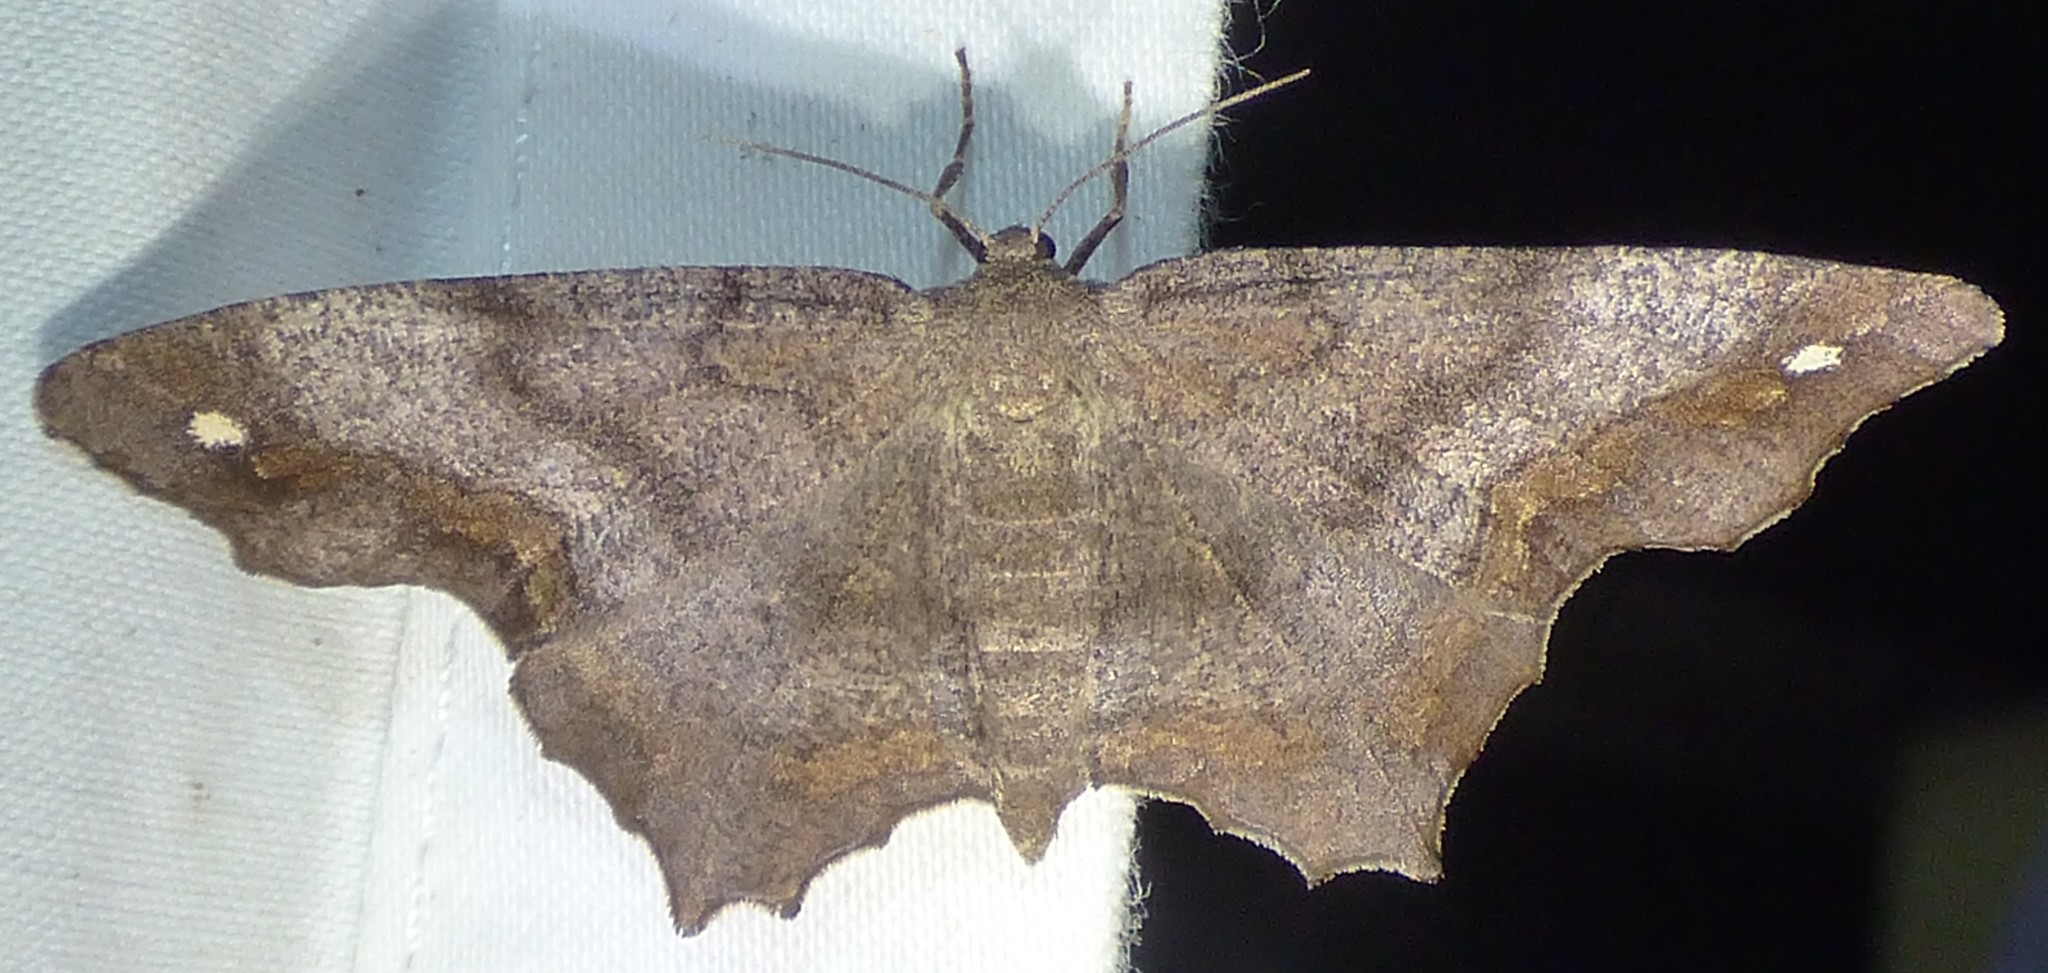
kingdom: Animalia
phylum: Arthropoda
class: Insecta
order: Lepidoptera
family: Geometridae
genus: Hypagyrtis
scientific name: Hypagyrtis esther
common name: Esther moth
